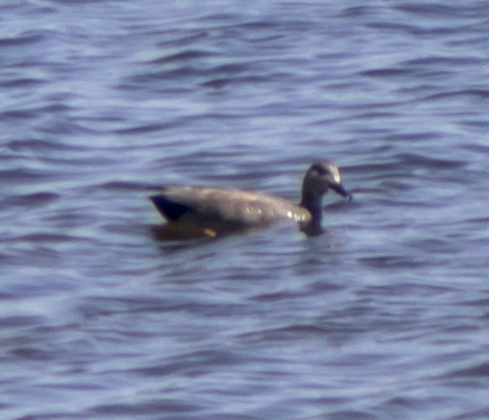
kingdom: Animalia
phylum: Chordata
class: Aves
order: Anseriformes
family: Anatidae
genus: Mareca
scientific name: Mareca strepera
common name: Gadwall
